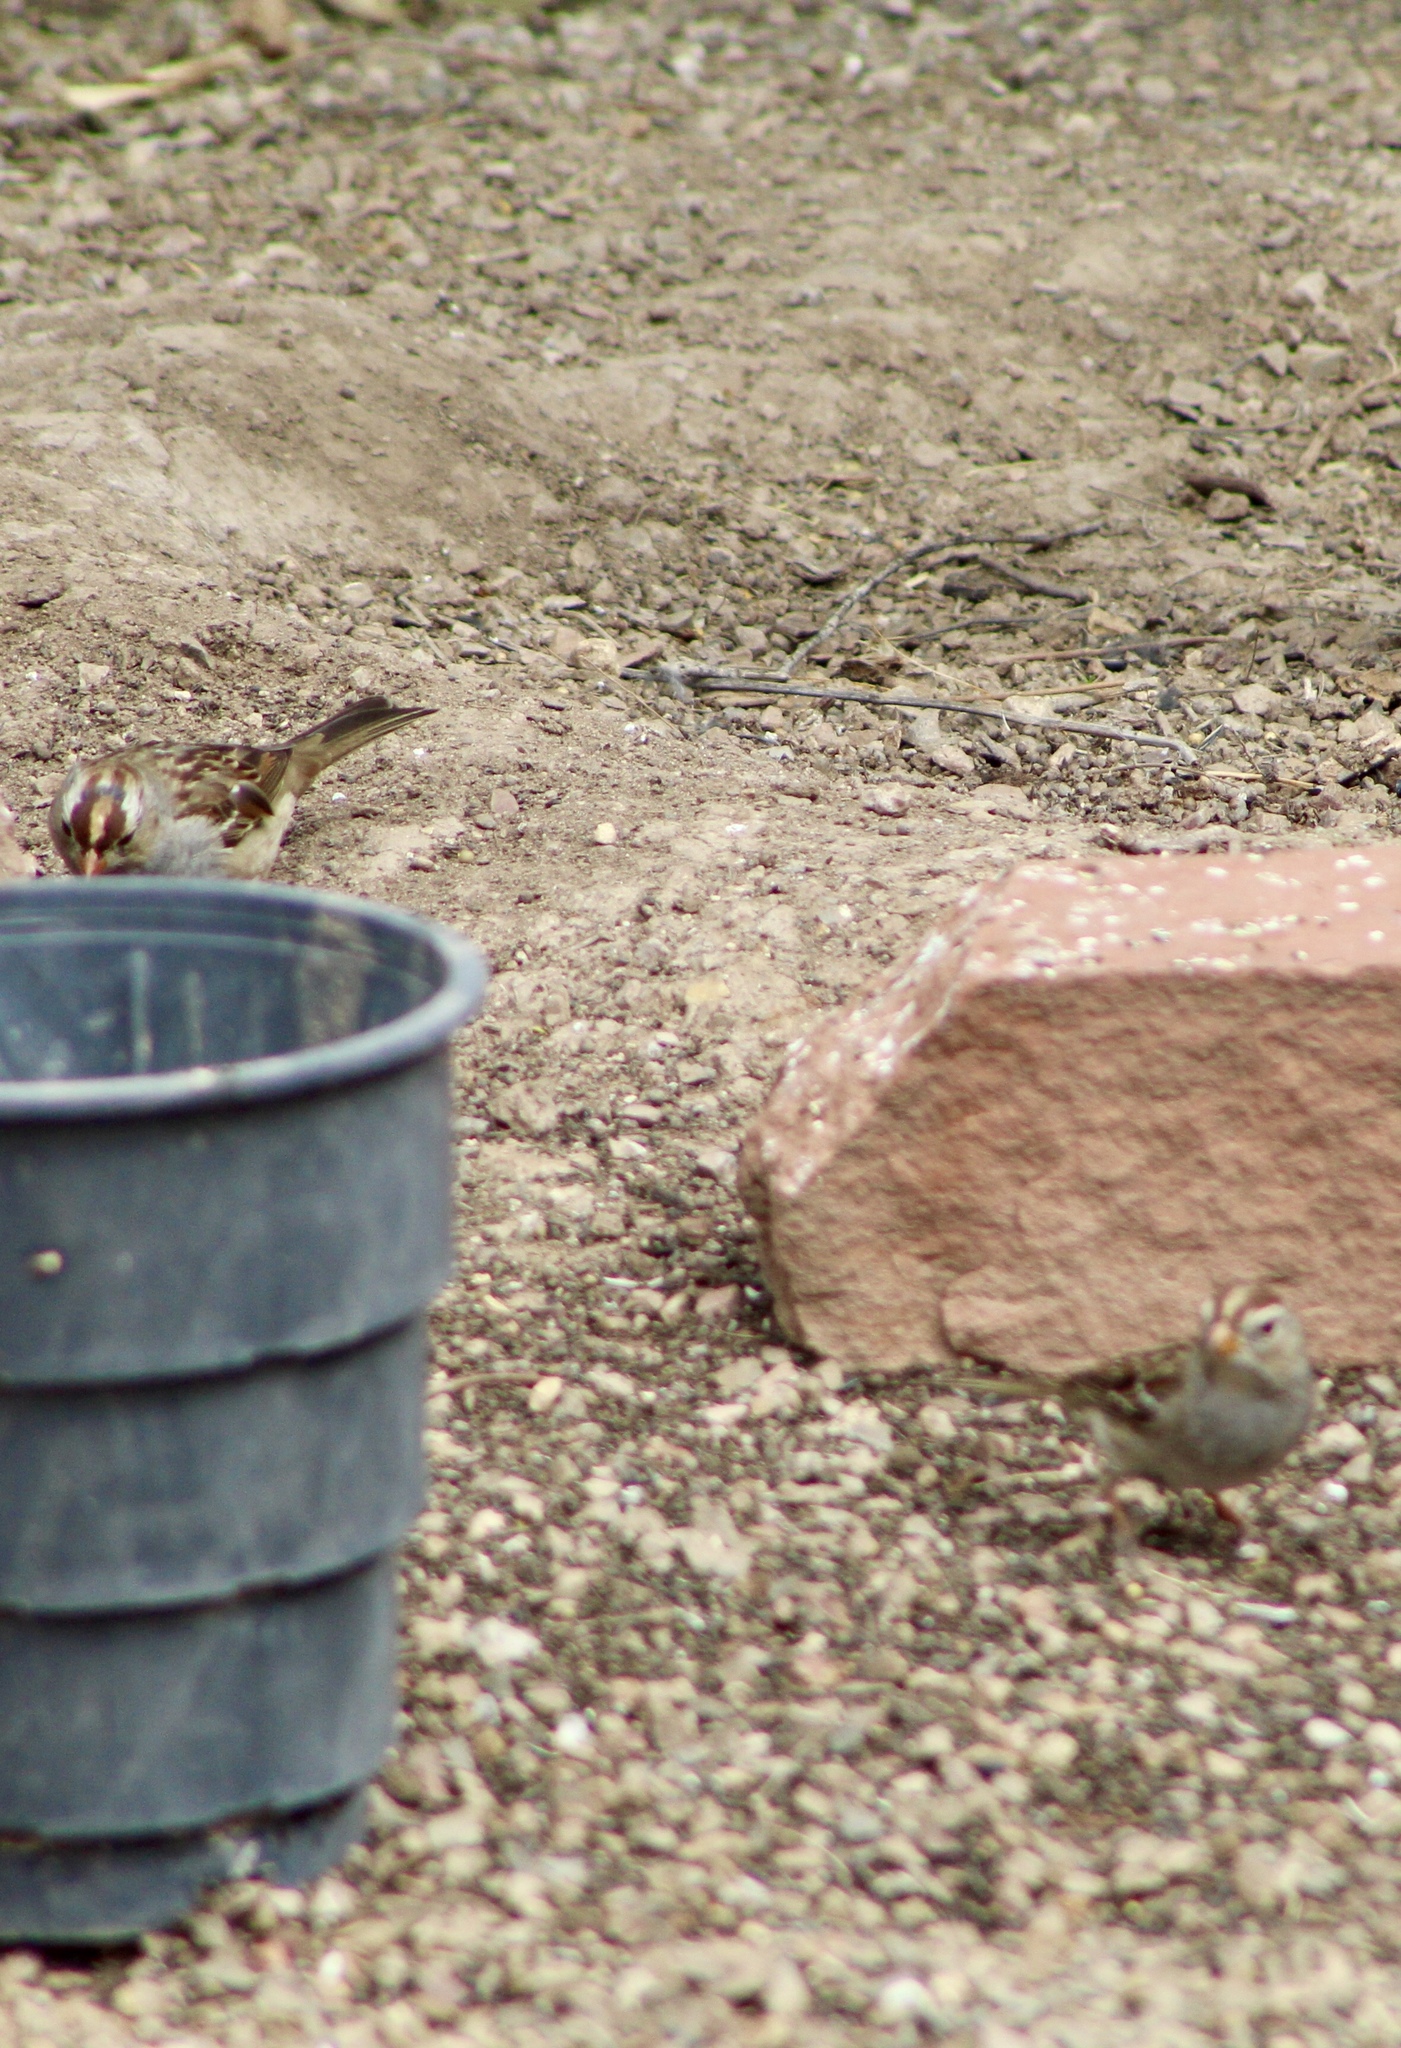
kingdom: Animalia
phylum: Chordata
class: Aves
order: Passeriformes
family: Passerellidae
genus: Zonotrichia
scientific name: Zonotrichia leucophrys
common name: White-crowned sparrow
